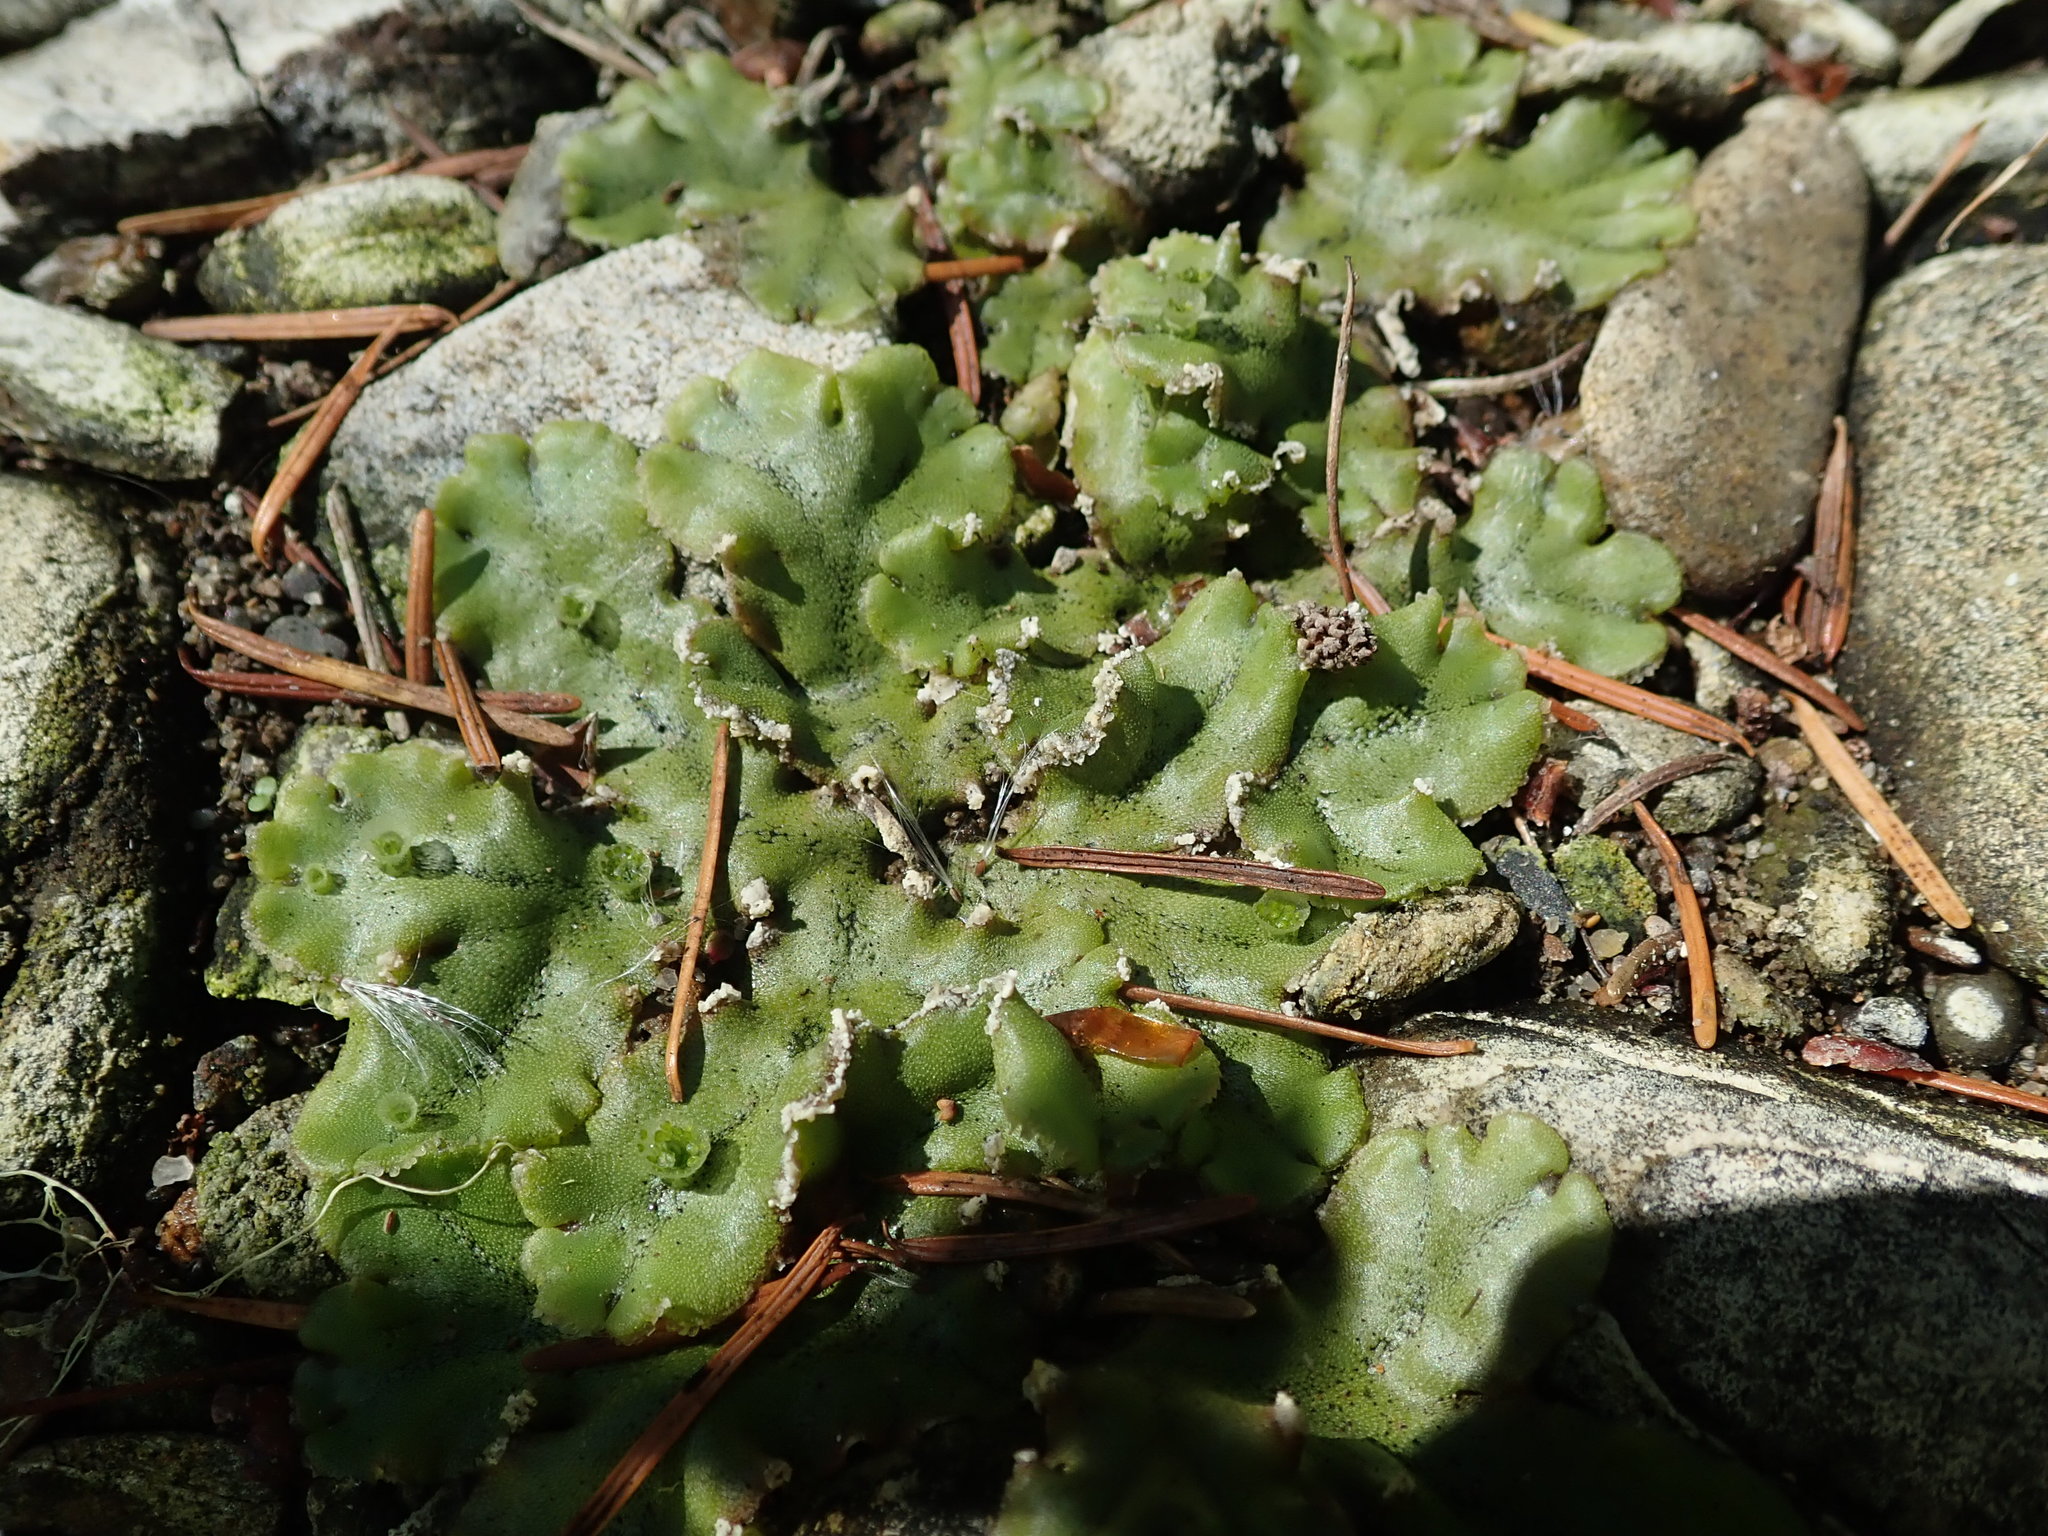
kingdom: Plantae
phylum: Marchantiophyta
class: Marchantiopsida
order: Marchantiales
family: Marchantiaceae
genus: Marchantia
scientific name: Marchantia polymorpha
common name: Common liverwort
